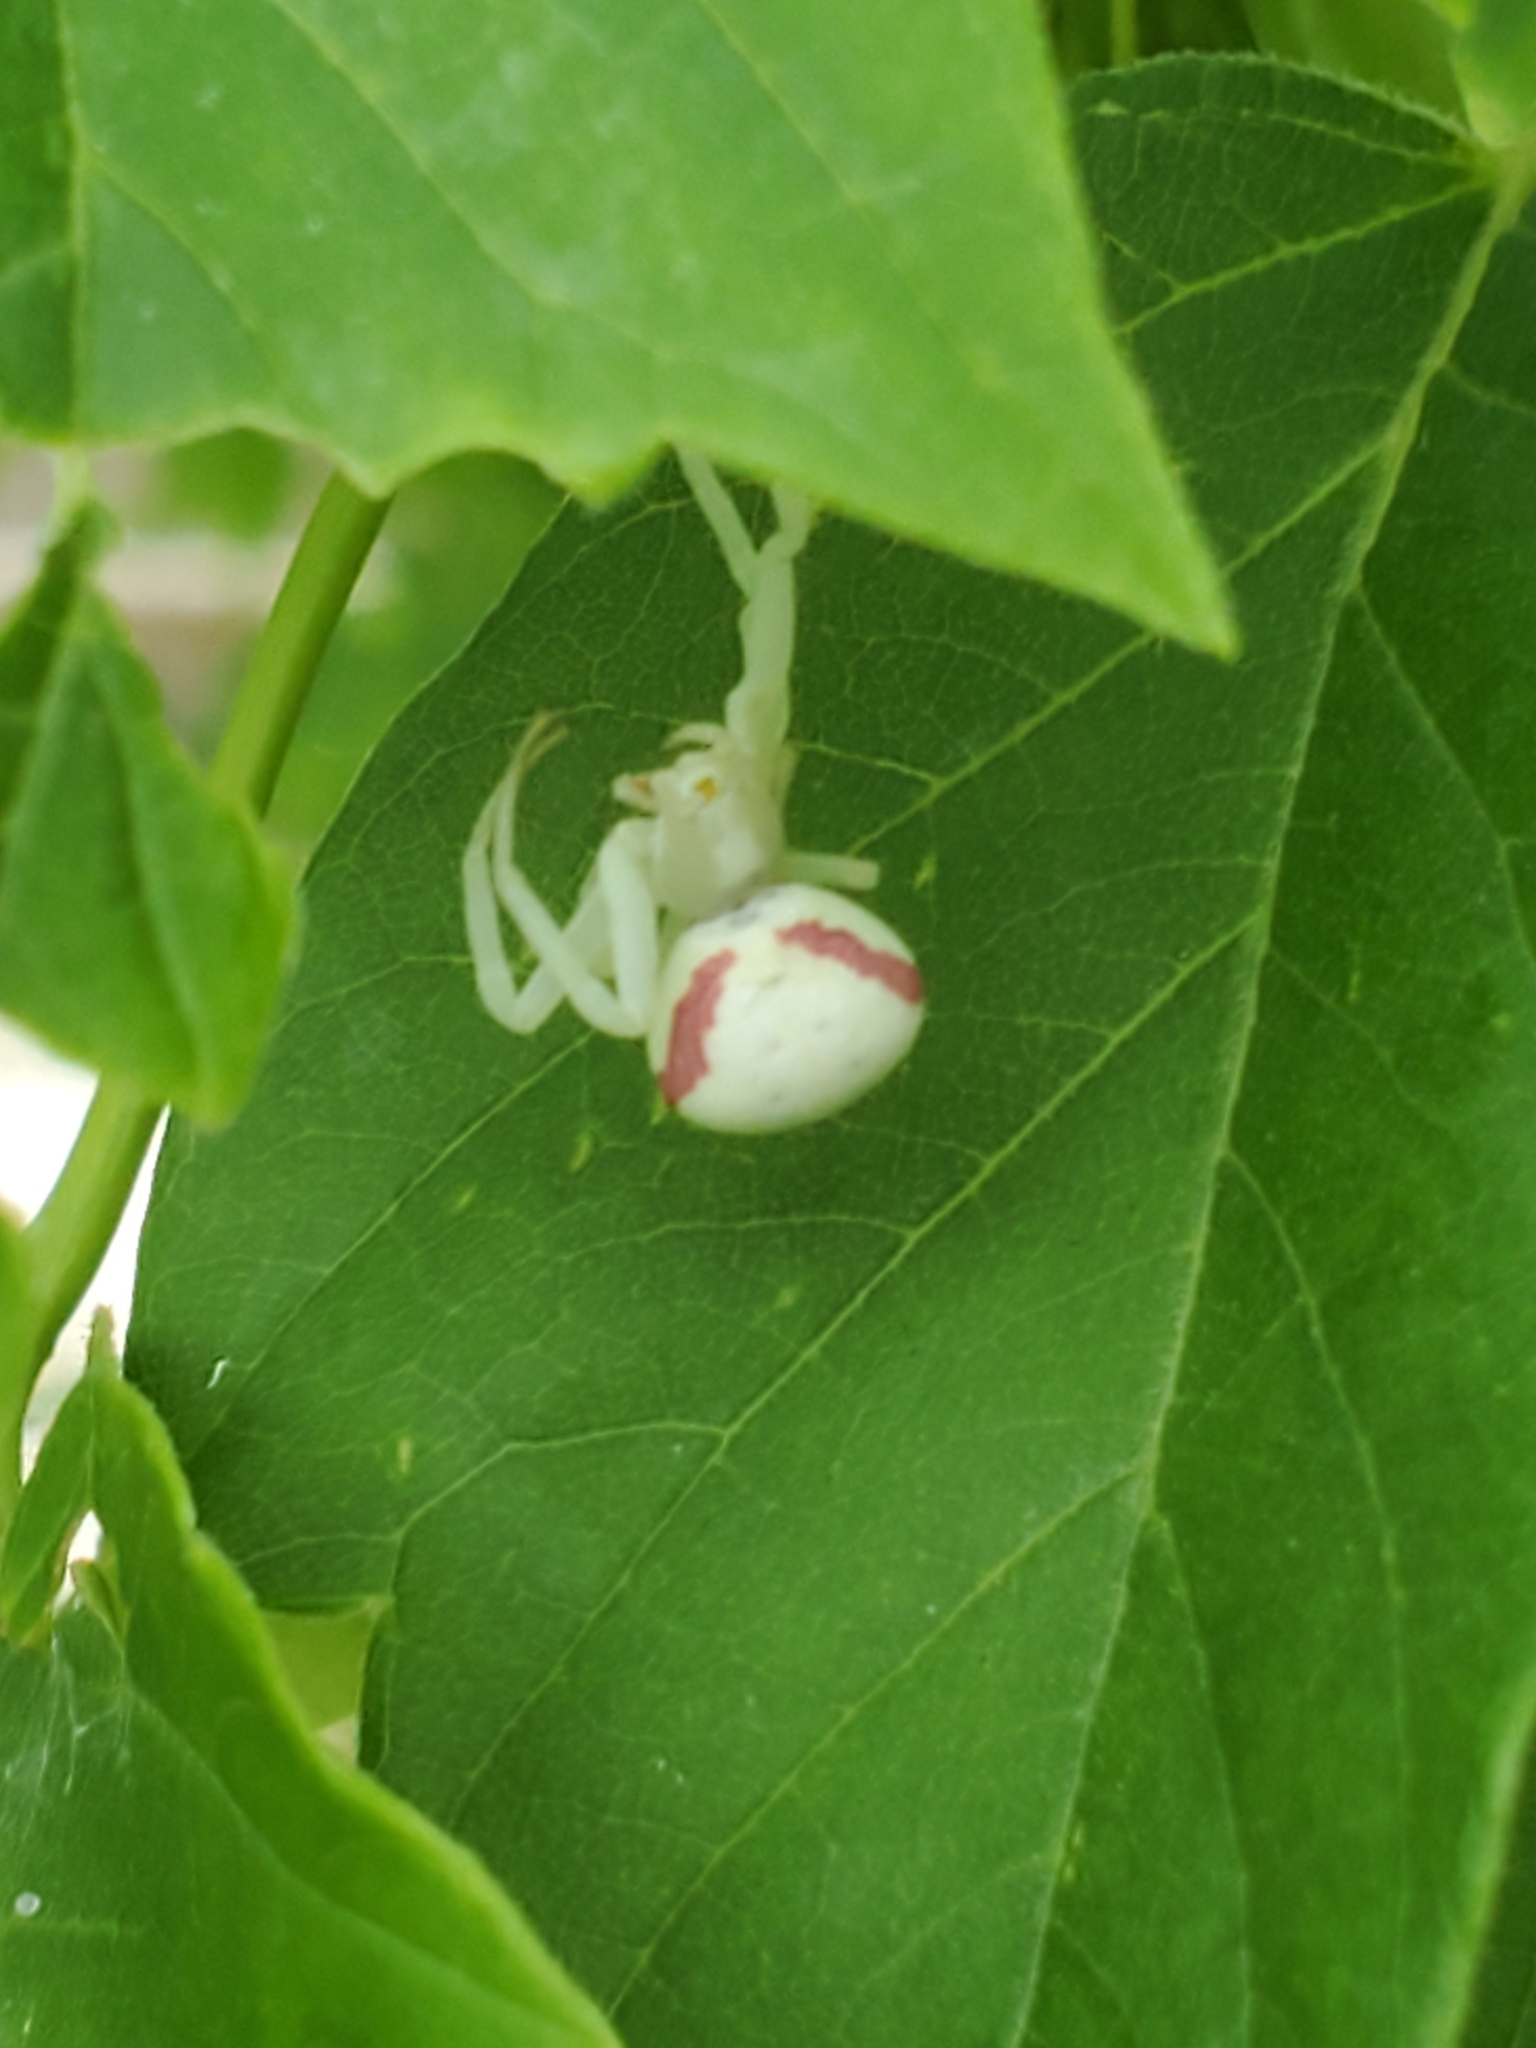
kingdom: Animalia
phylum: Arthropoda
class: Arachnida
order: Araneae
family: Thomisidae
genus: Misumena
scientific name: Misumena vatia
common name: Goldenrod crab spider
